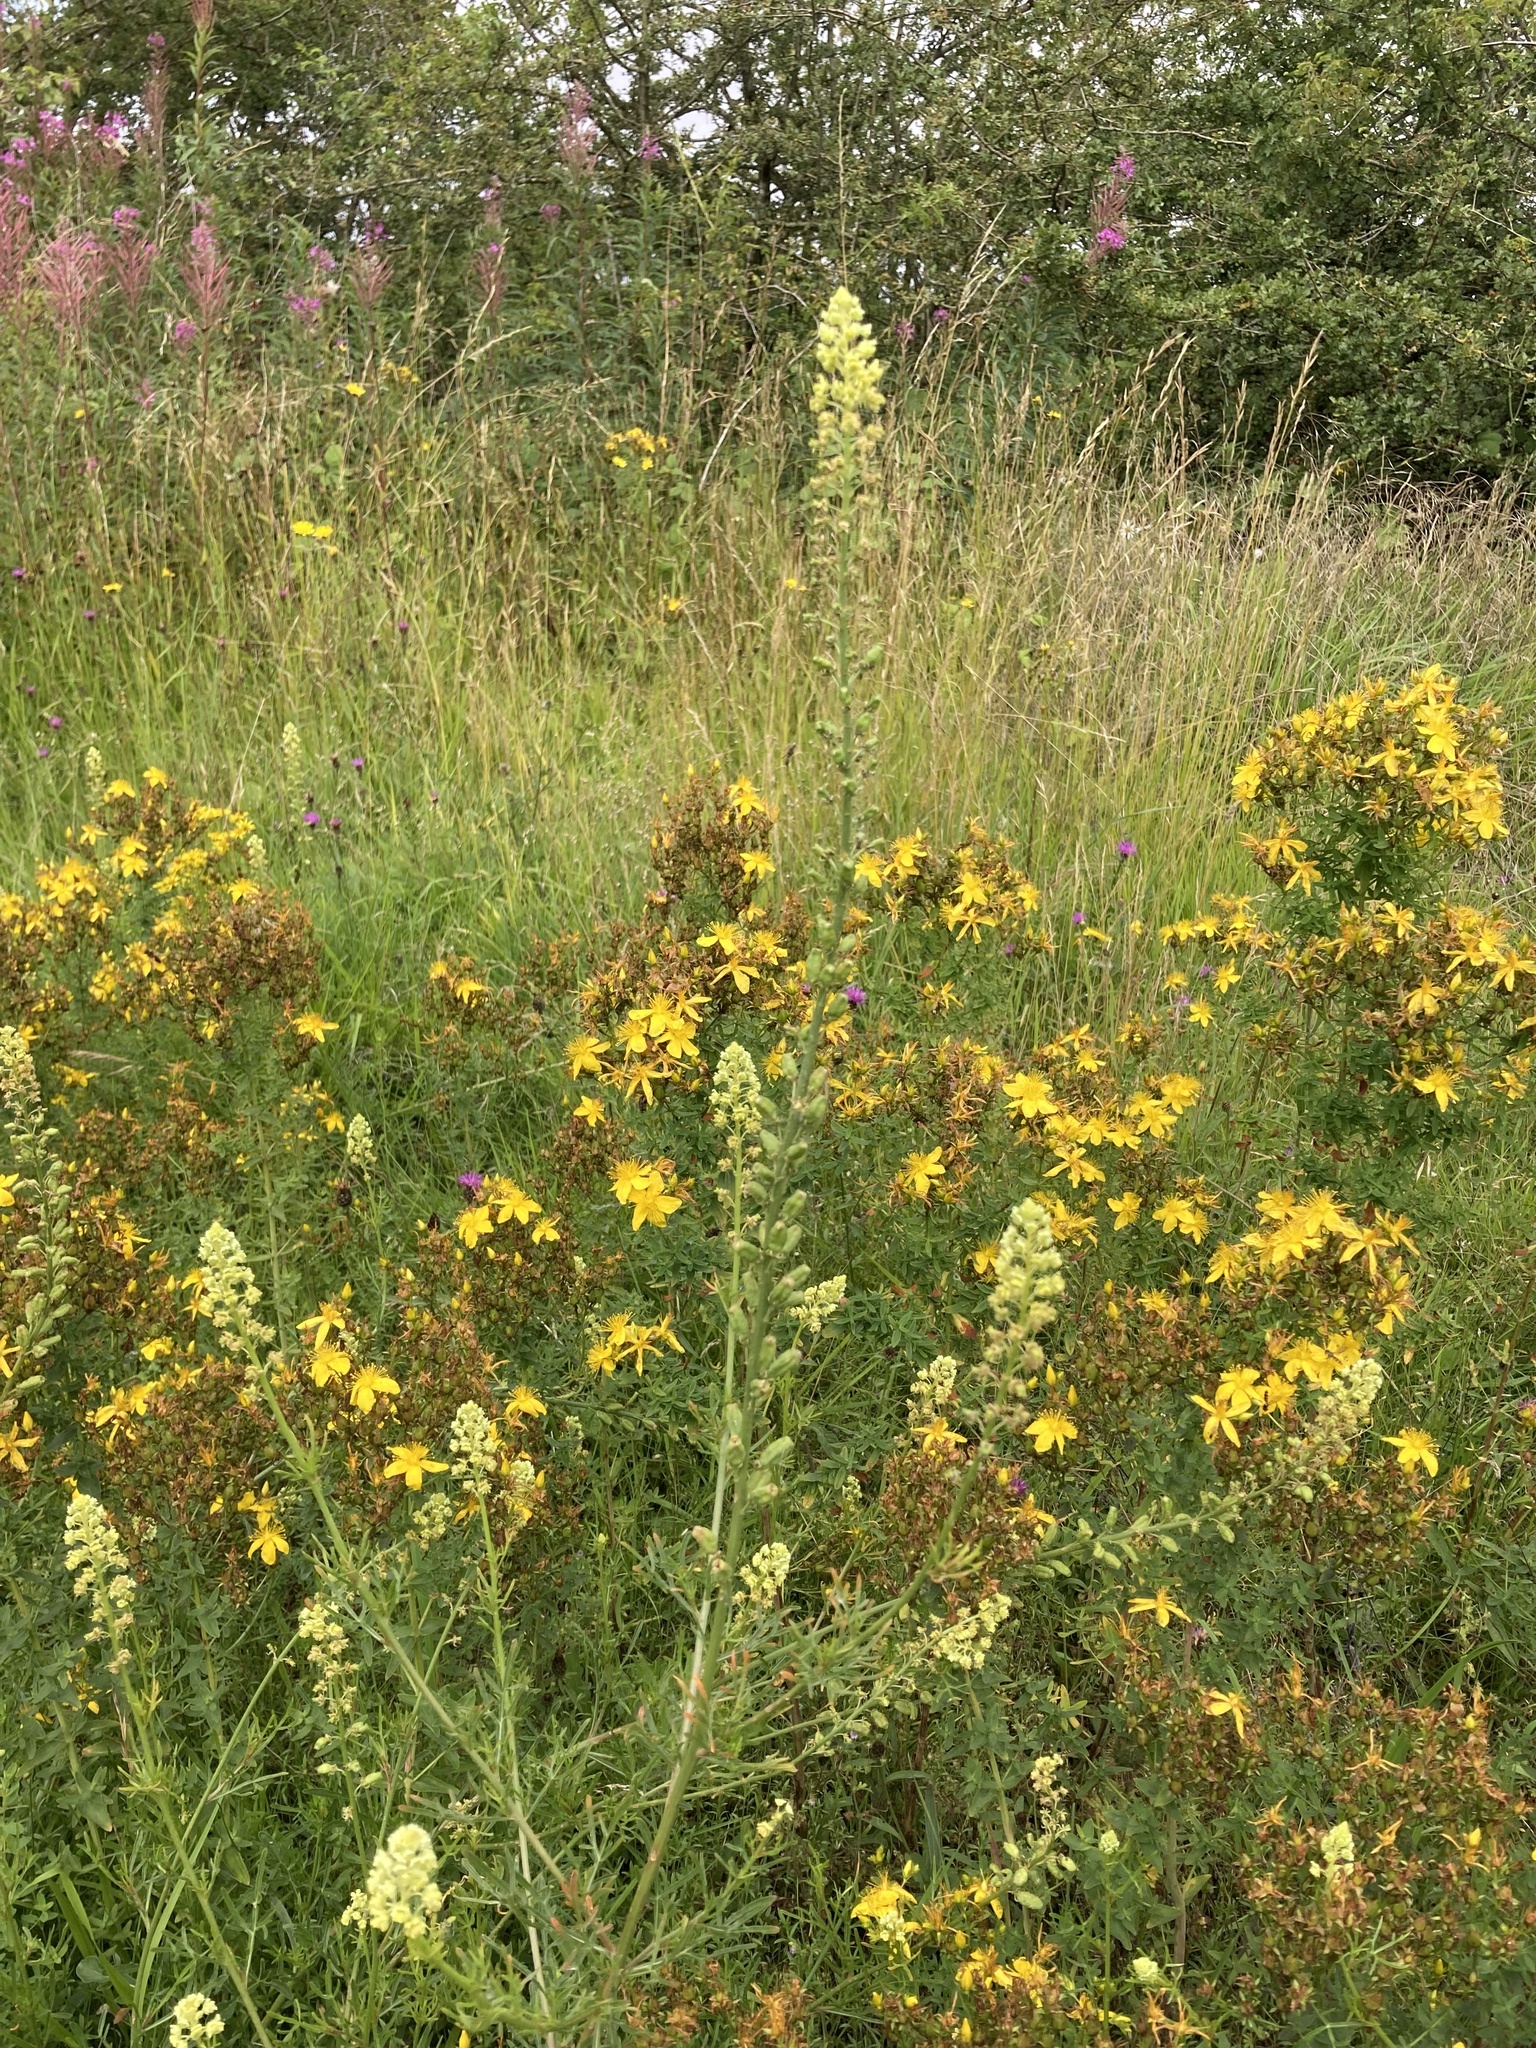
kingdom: Plantae
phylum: Tracheophyta
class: Magnoliopsida
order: Brassicales
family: Resedaceae
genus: Reseda
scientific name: Reseda lutea
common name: Wild mignonette
